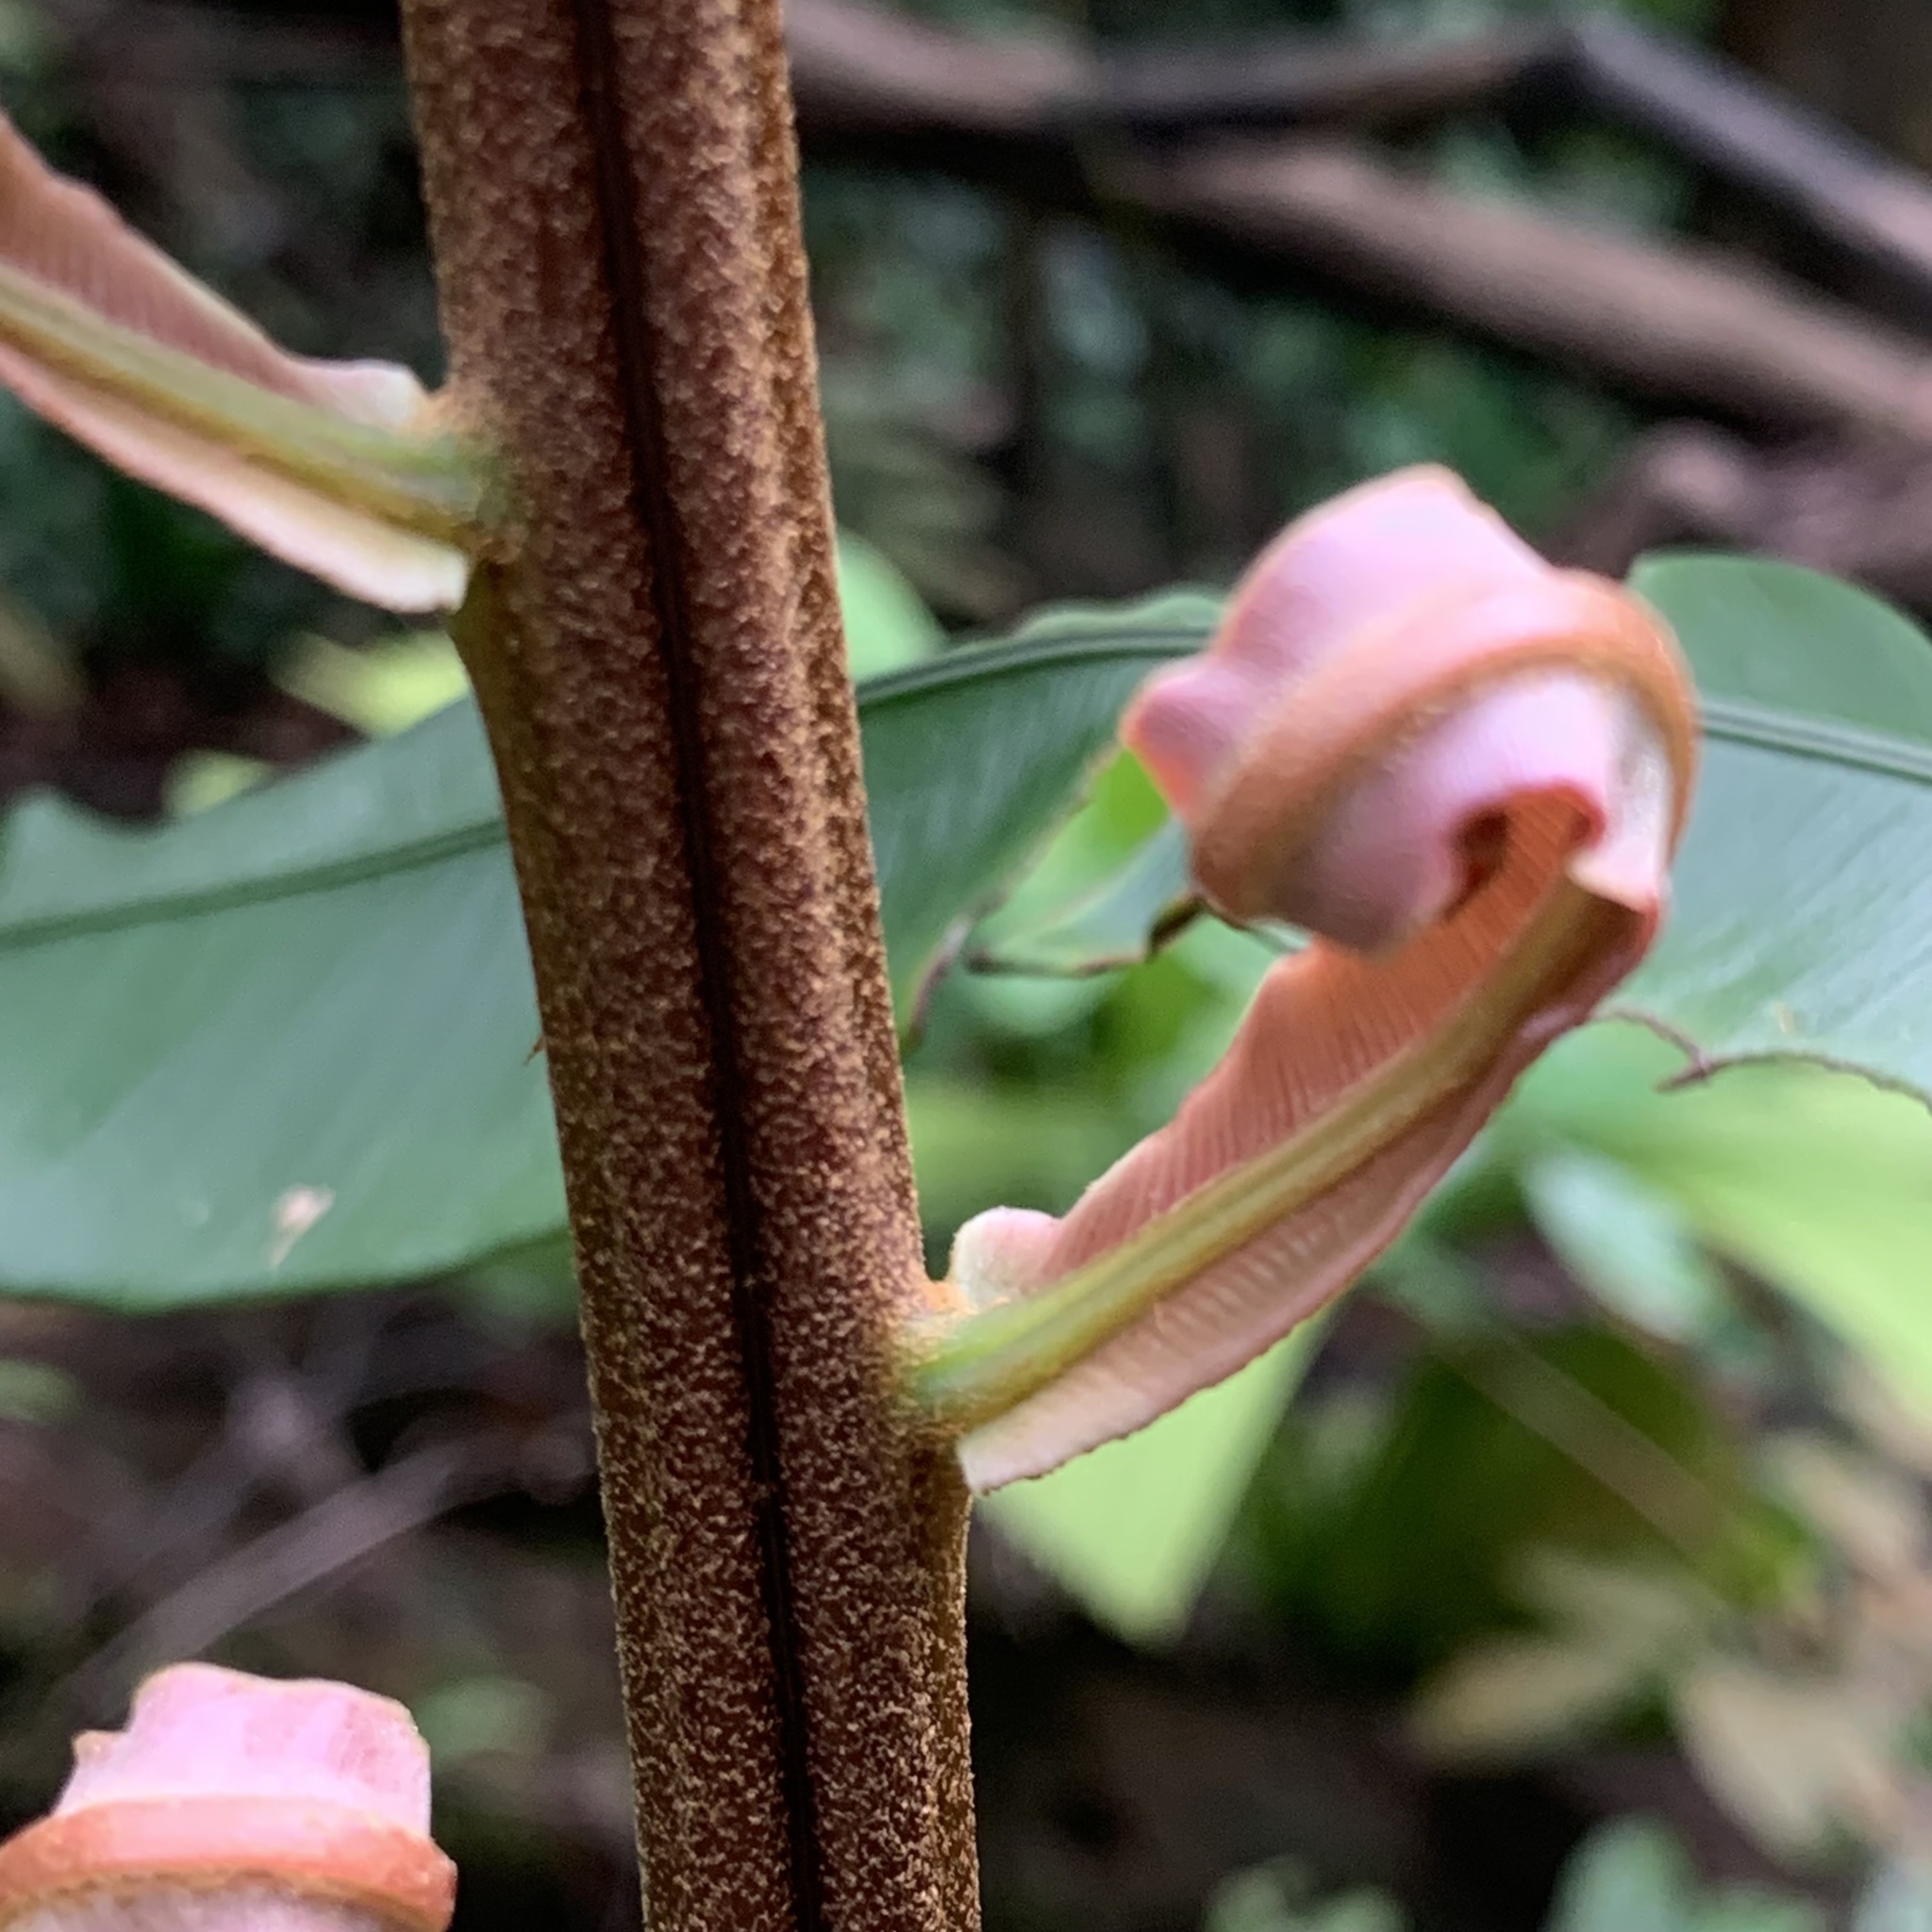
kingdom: Plantae
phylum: Tracheophyta
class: Polypodiopsida
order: Polypodiales
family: Blechnaceae
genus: Blechnopsis
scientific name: Blechnopsis finlaysoniana
